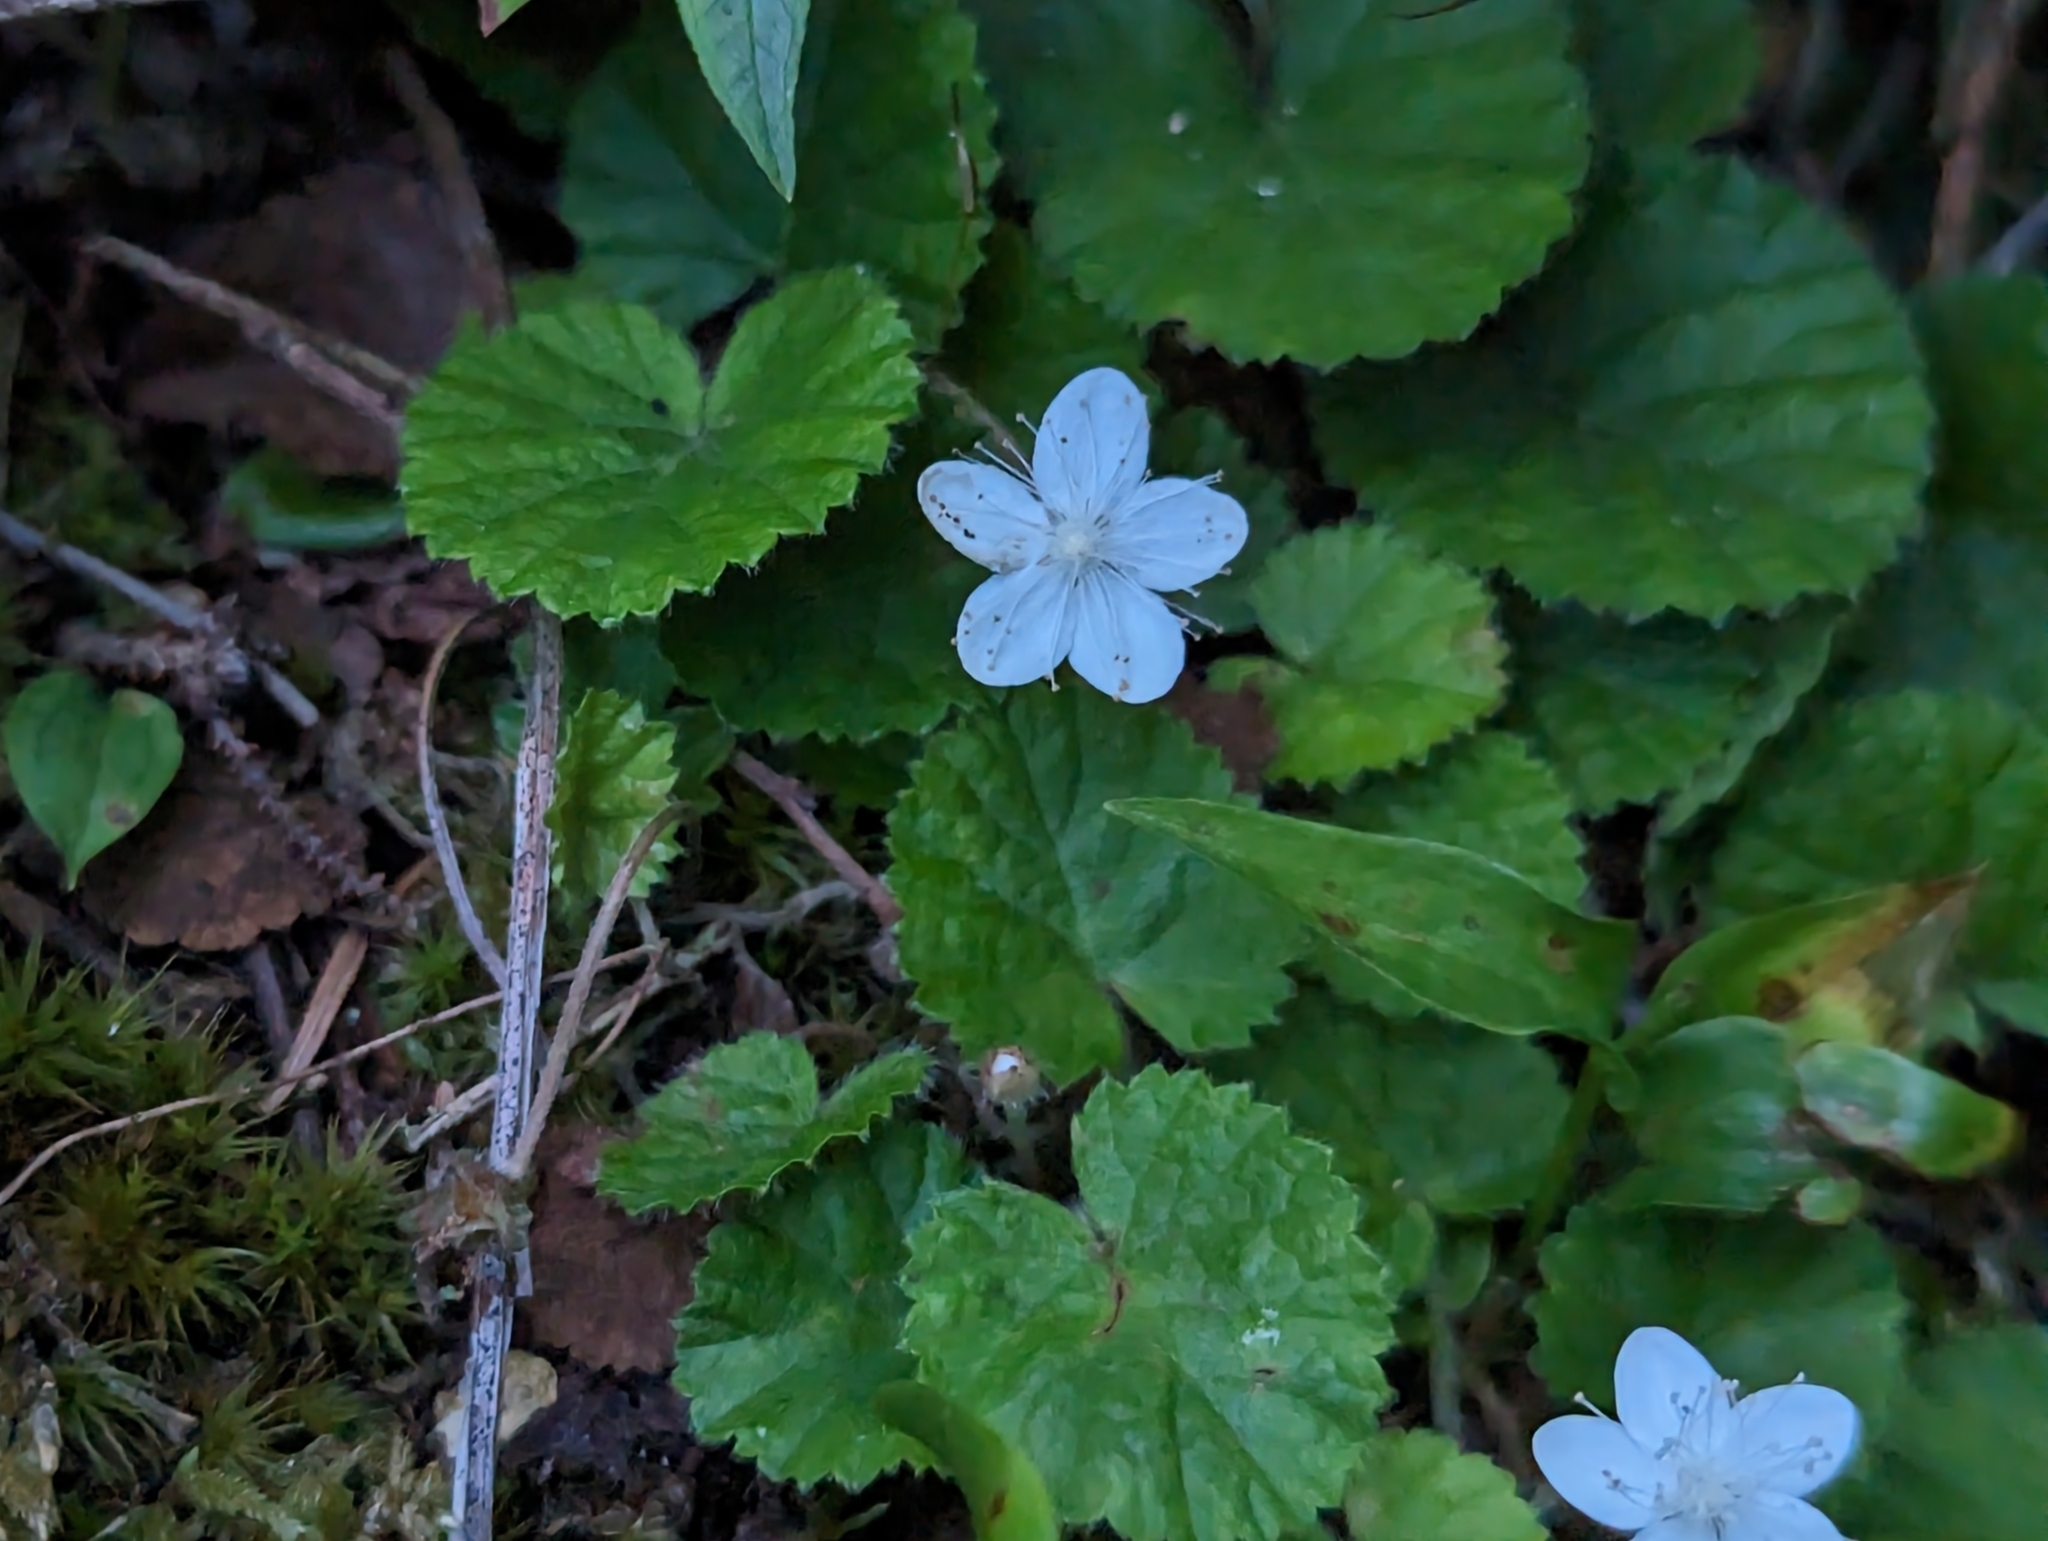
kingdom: Plantae
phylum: Tracheophyta
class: Magnoliopsida
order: Rosales
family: Rosaceae
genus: Dalibarda
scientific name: Dalibarda repens
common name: Dewdrop
